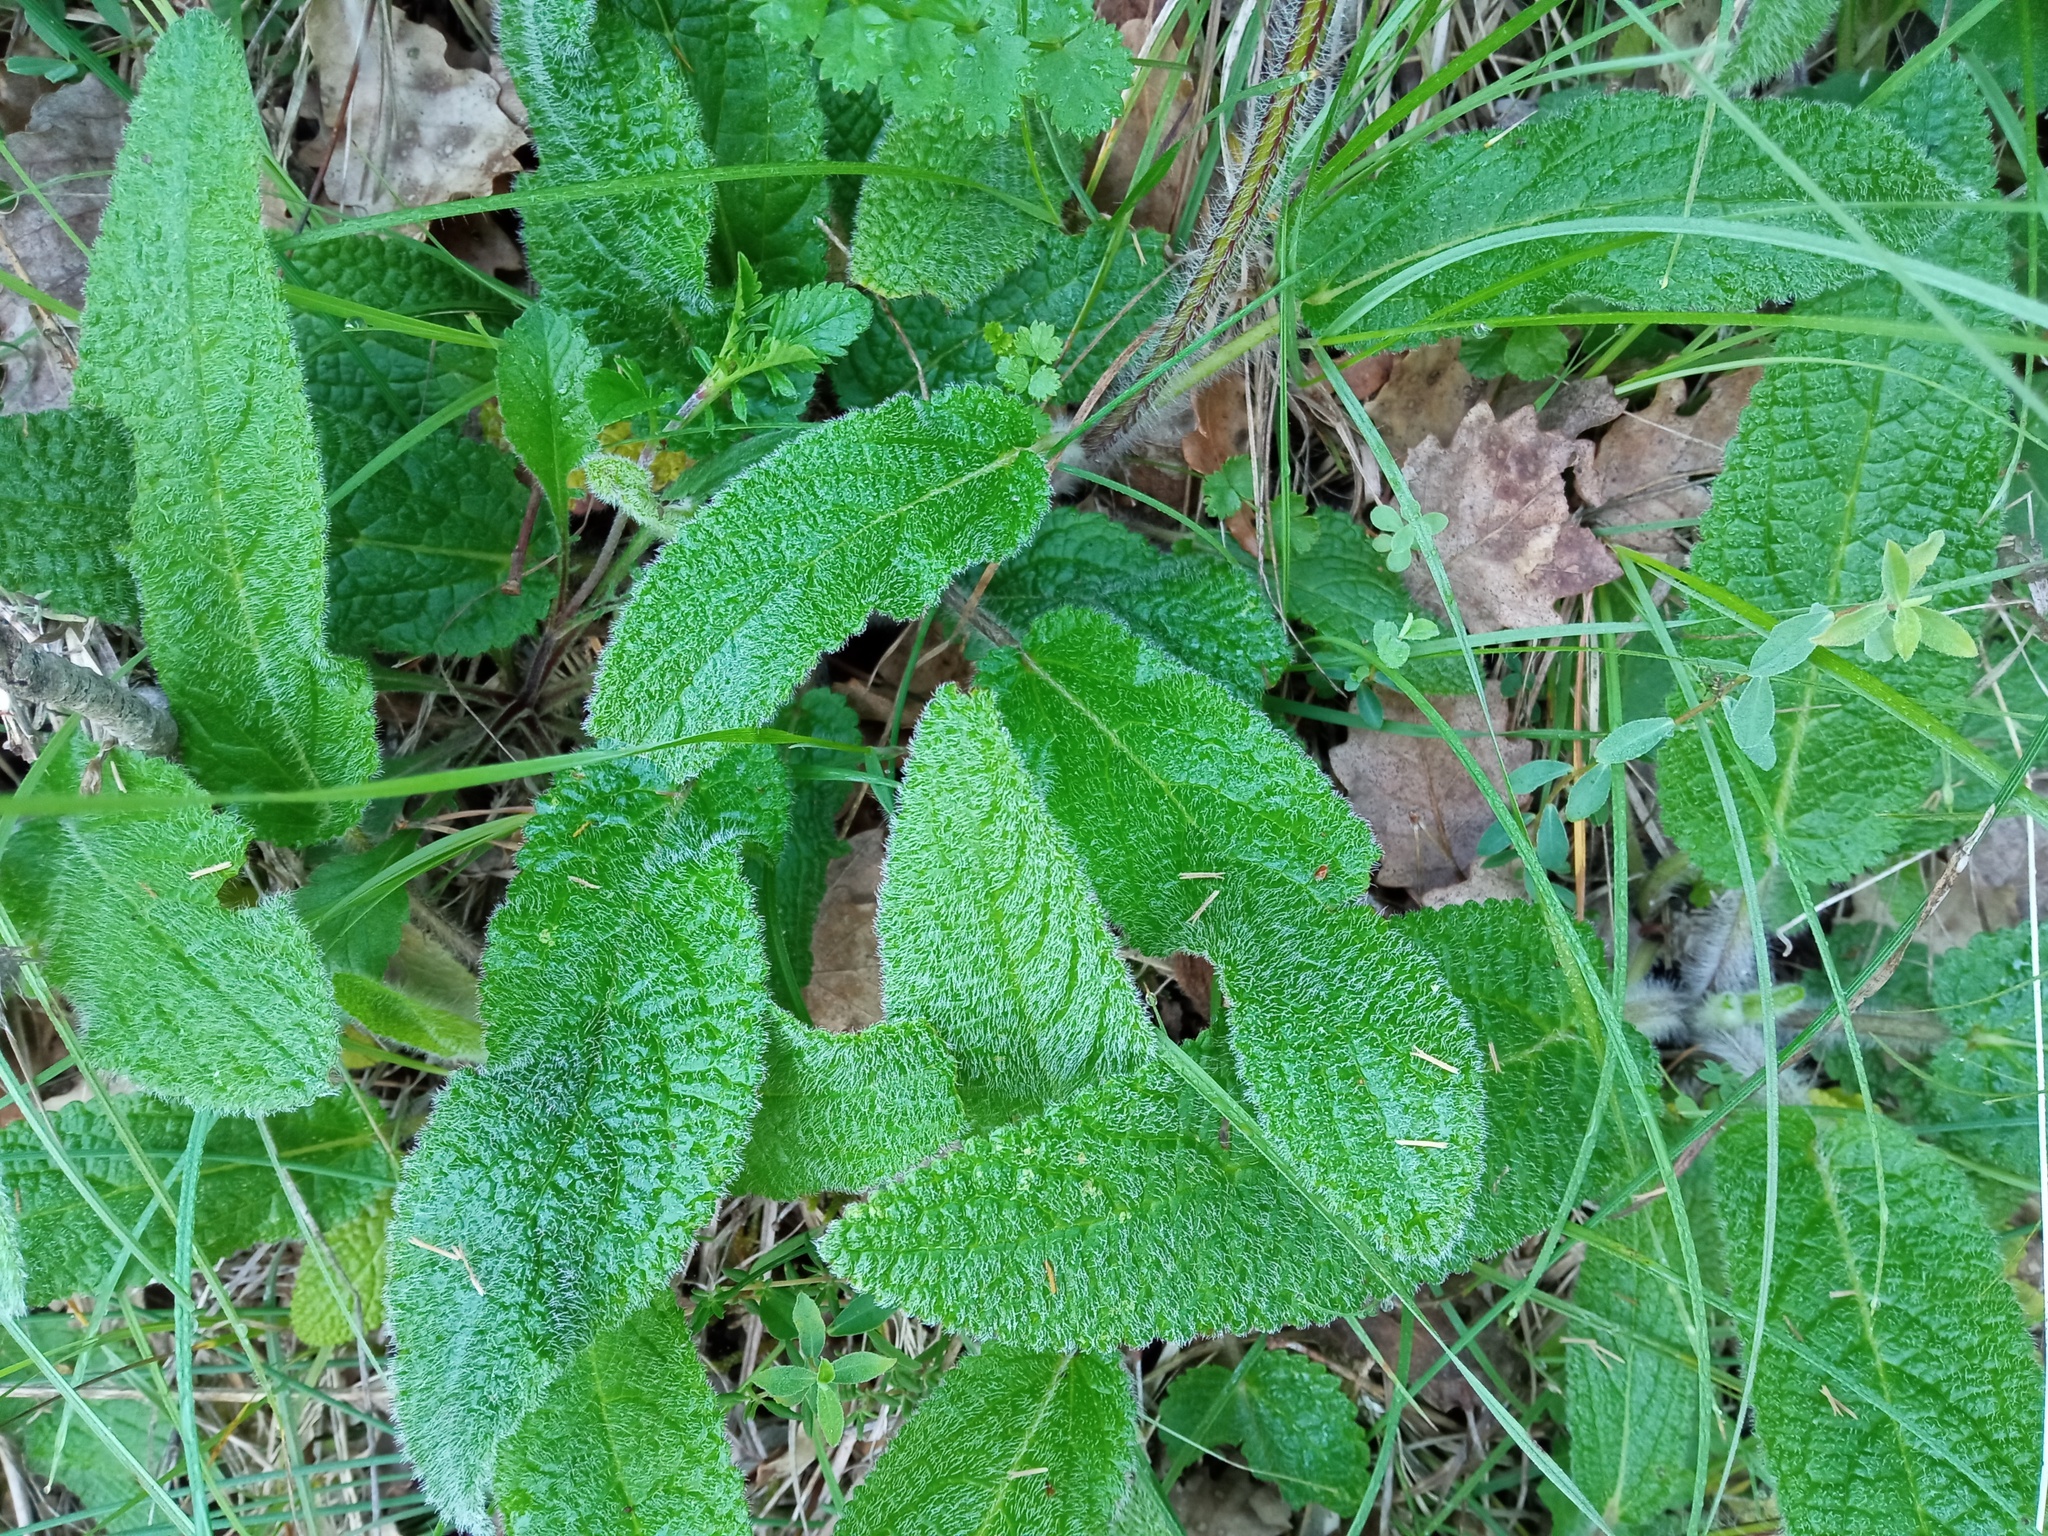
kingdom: Plantae
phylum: Tracheophyta
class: Magnoliopsida
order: Lamiales
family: Lamiaceae
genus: Stachys
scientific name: Stachys heraclea
